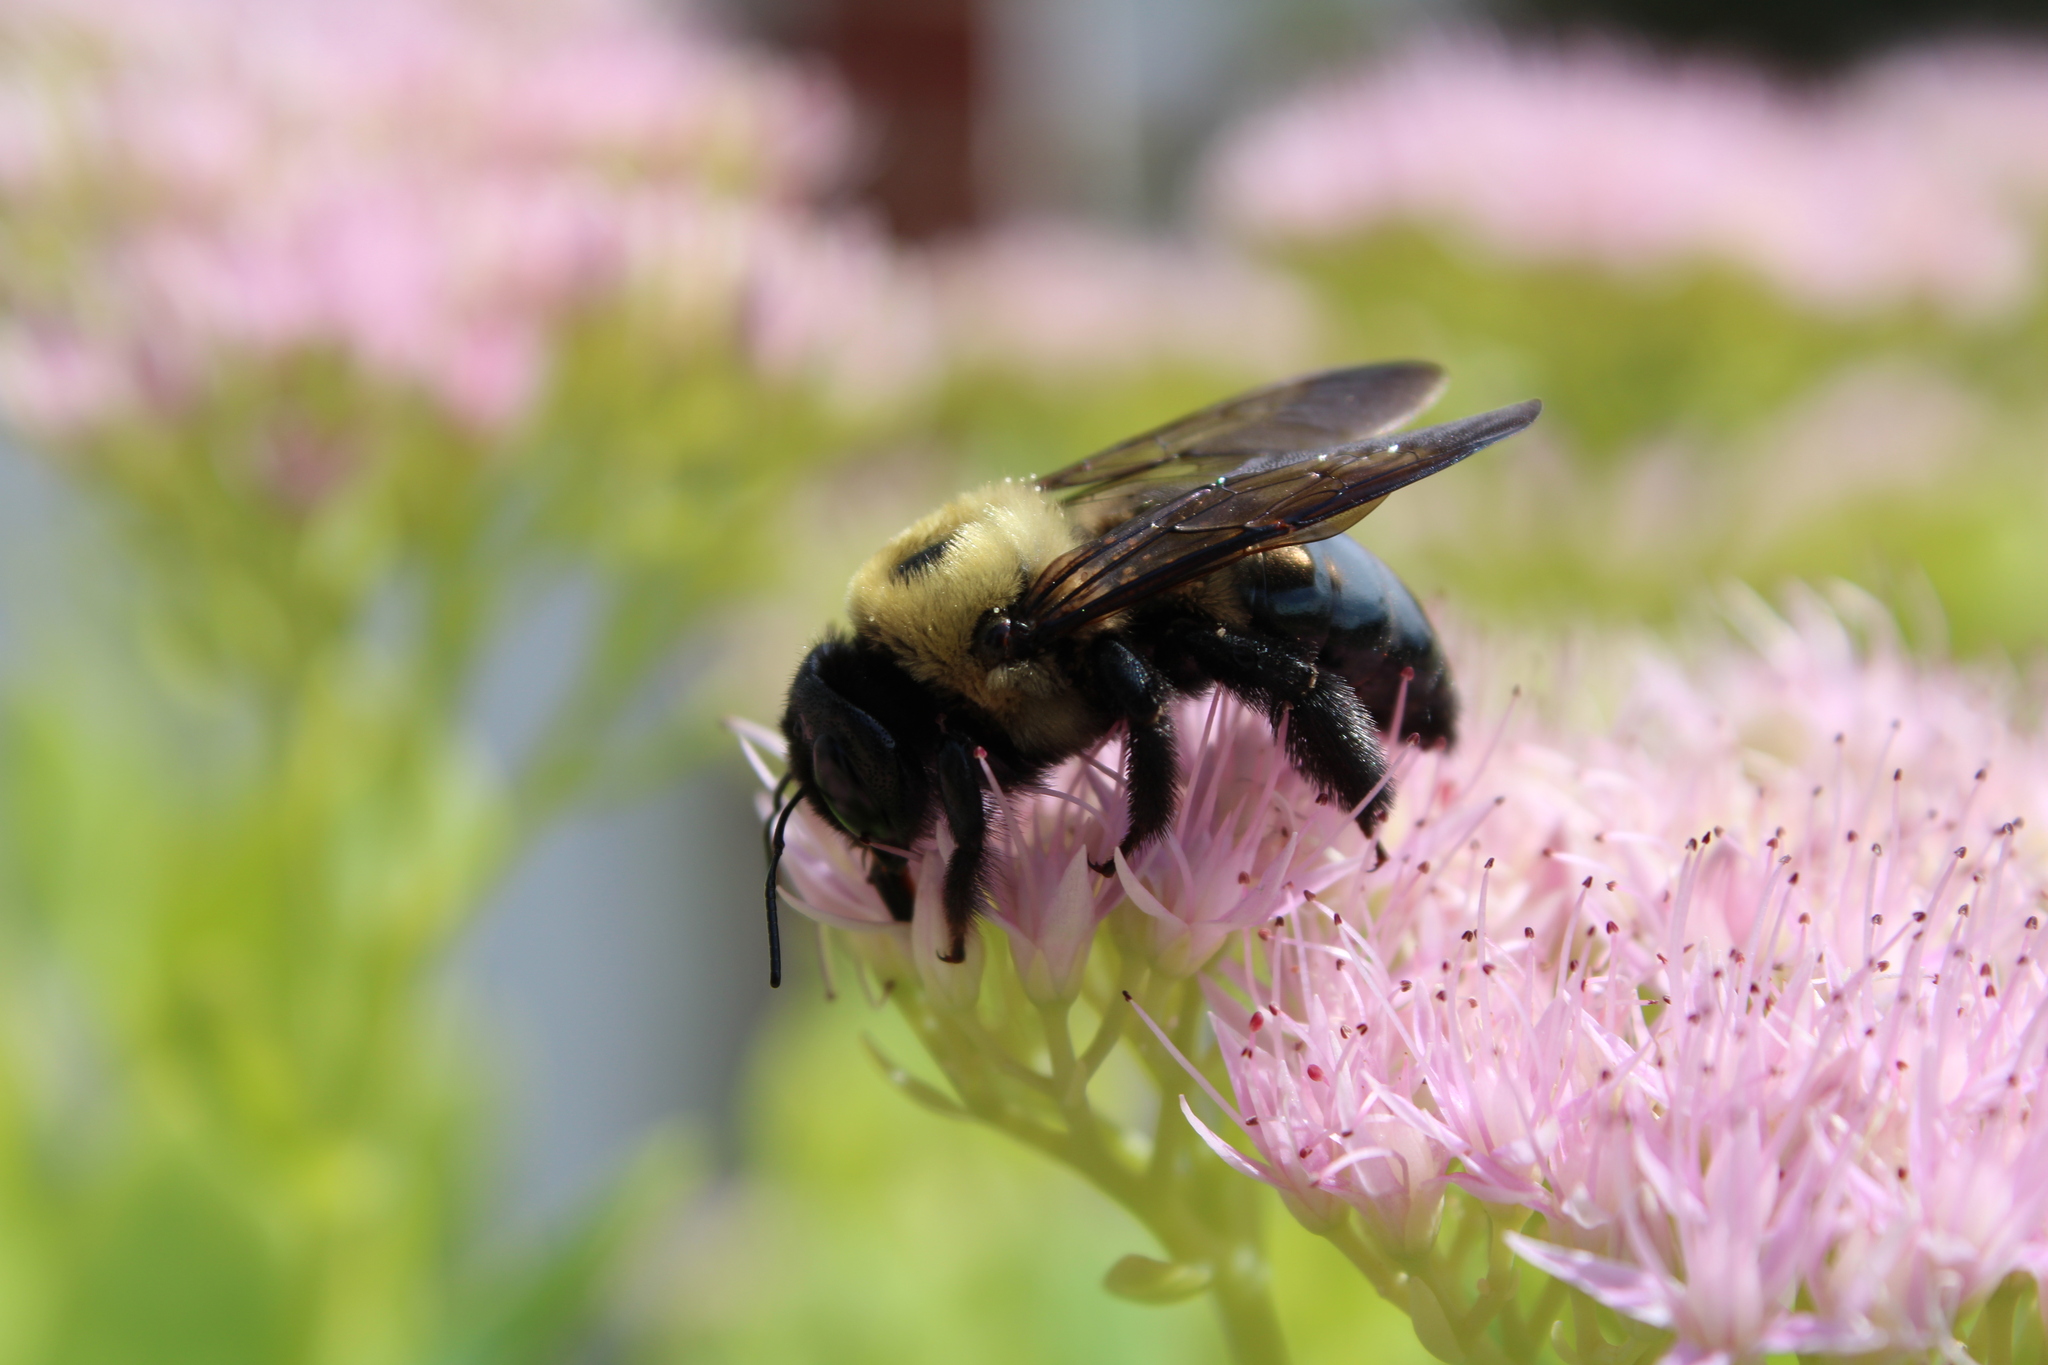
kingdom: Animalia
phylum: Arthropoda
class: Insecta
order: Hymenoptera
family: Apidae
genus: Xylocopa
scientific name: Xylocopa virginica
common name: Carpenter bee
